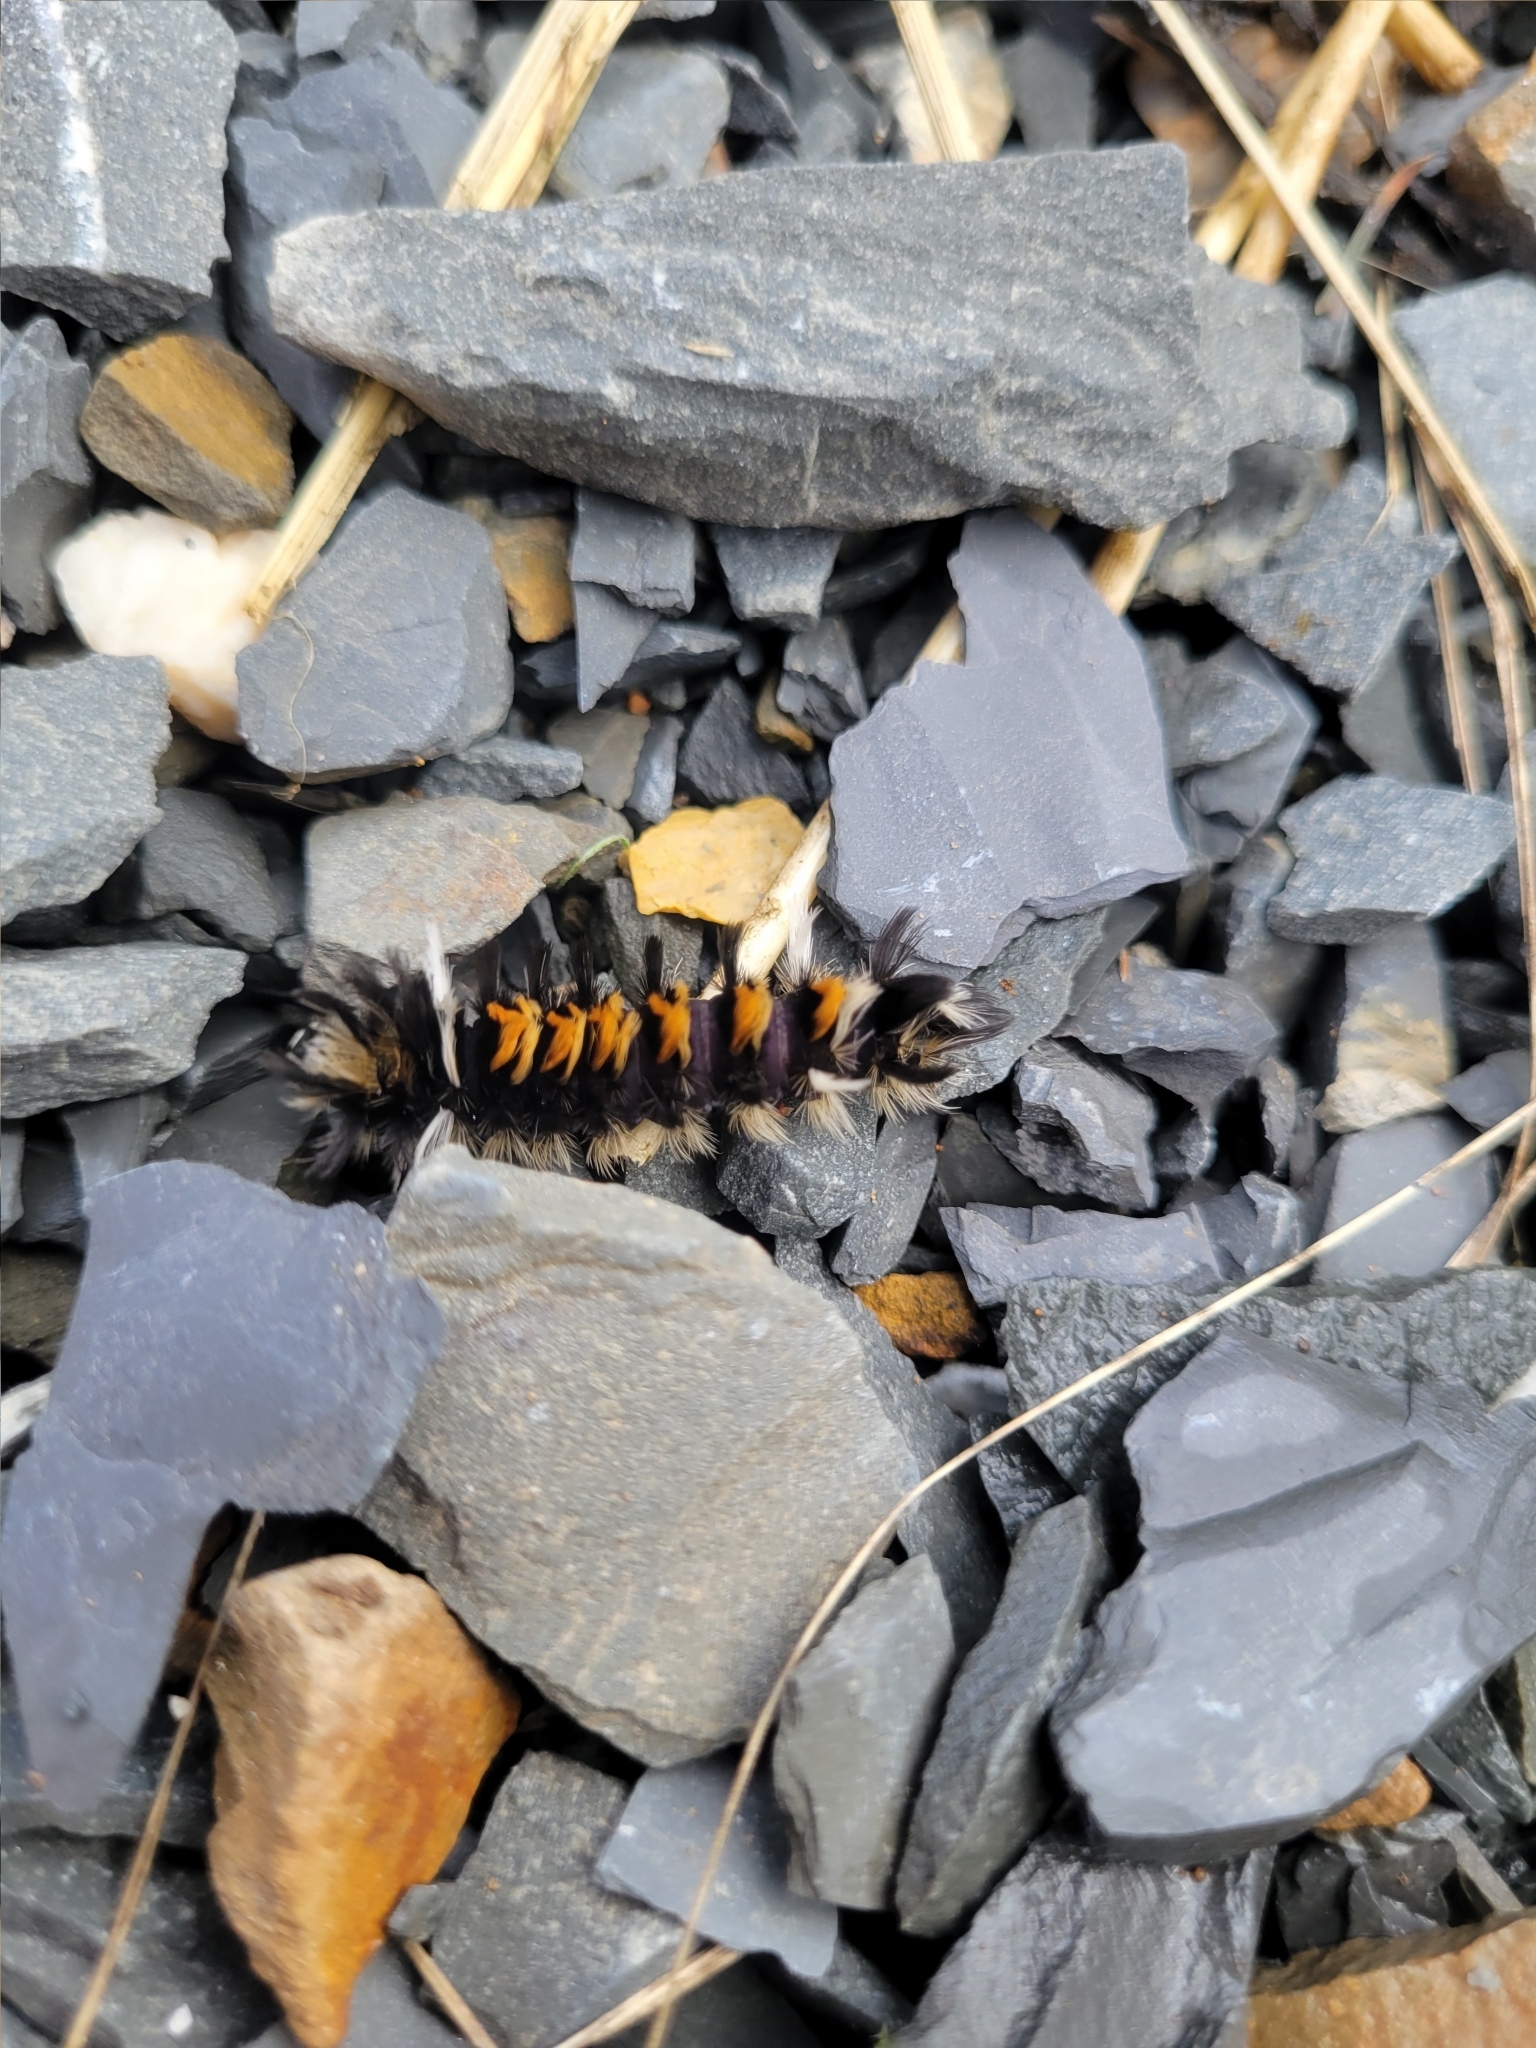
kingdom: Animalia
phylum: Arthropoda
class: Insecta
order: Lepidoptera
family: Erebidae
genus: Euchaetes
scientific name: Euchaetes egle
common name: Milkweed tussock moth
